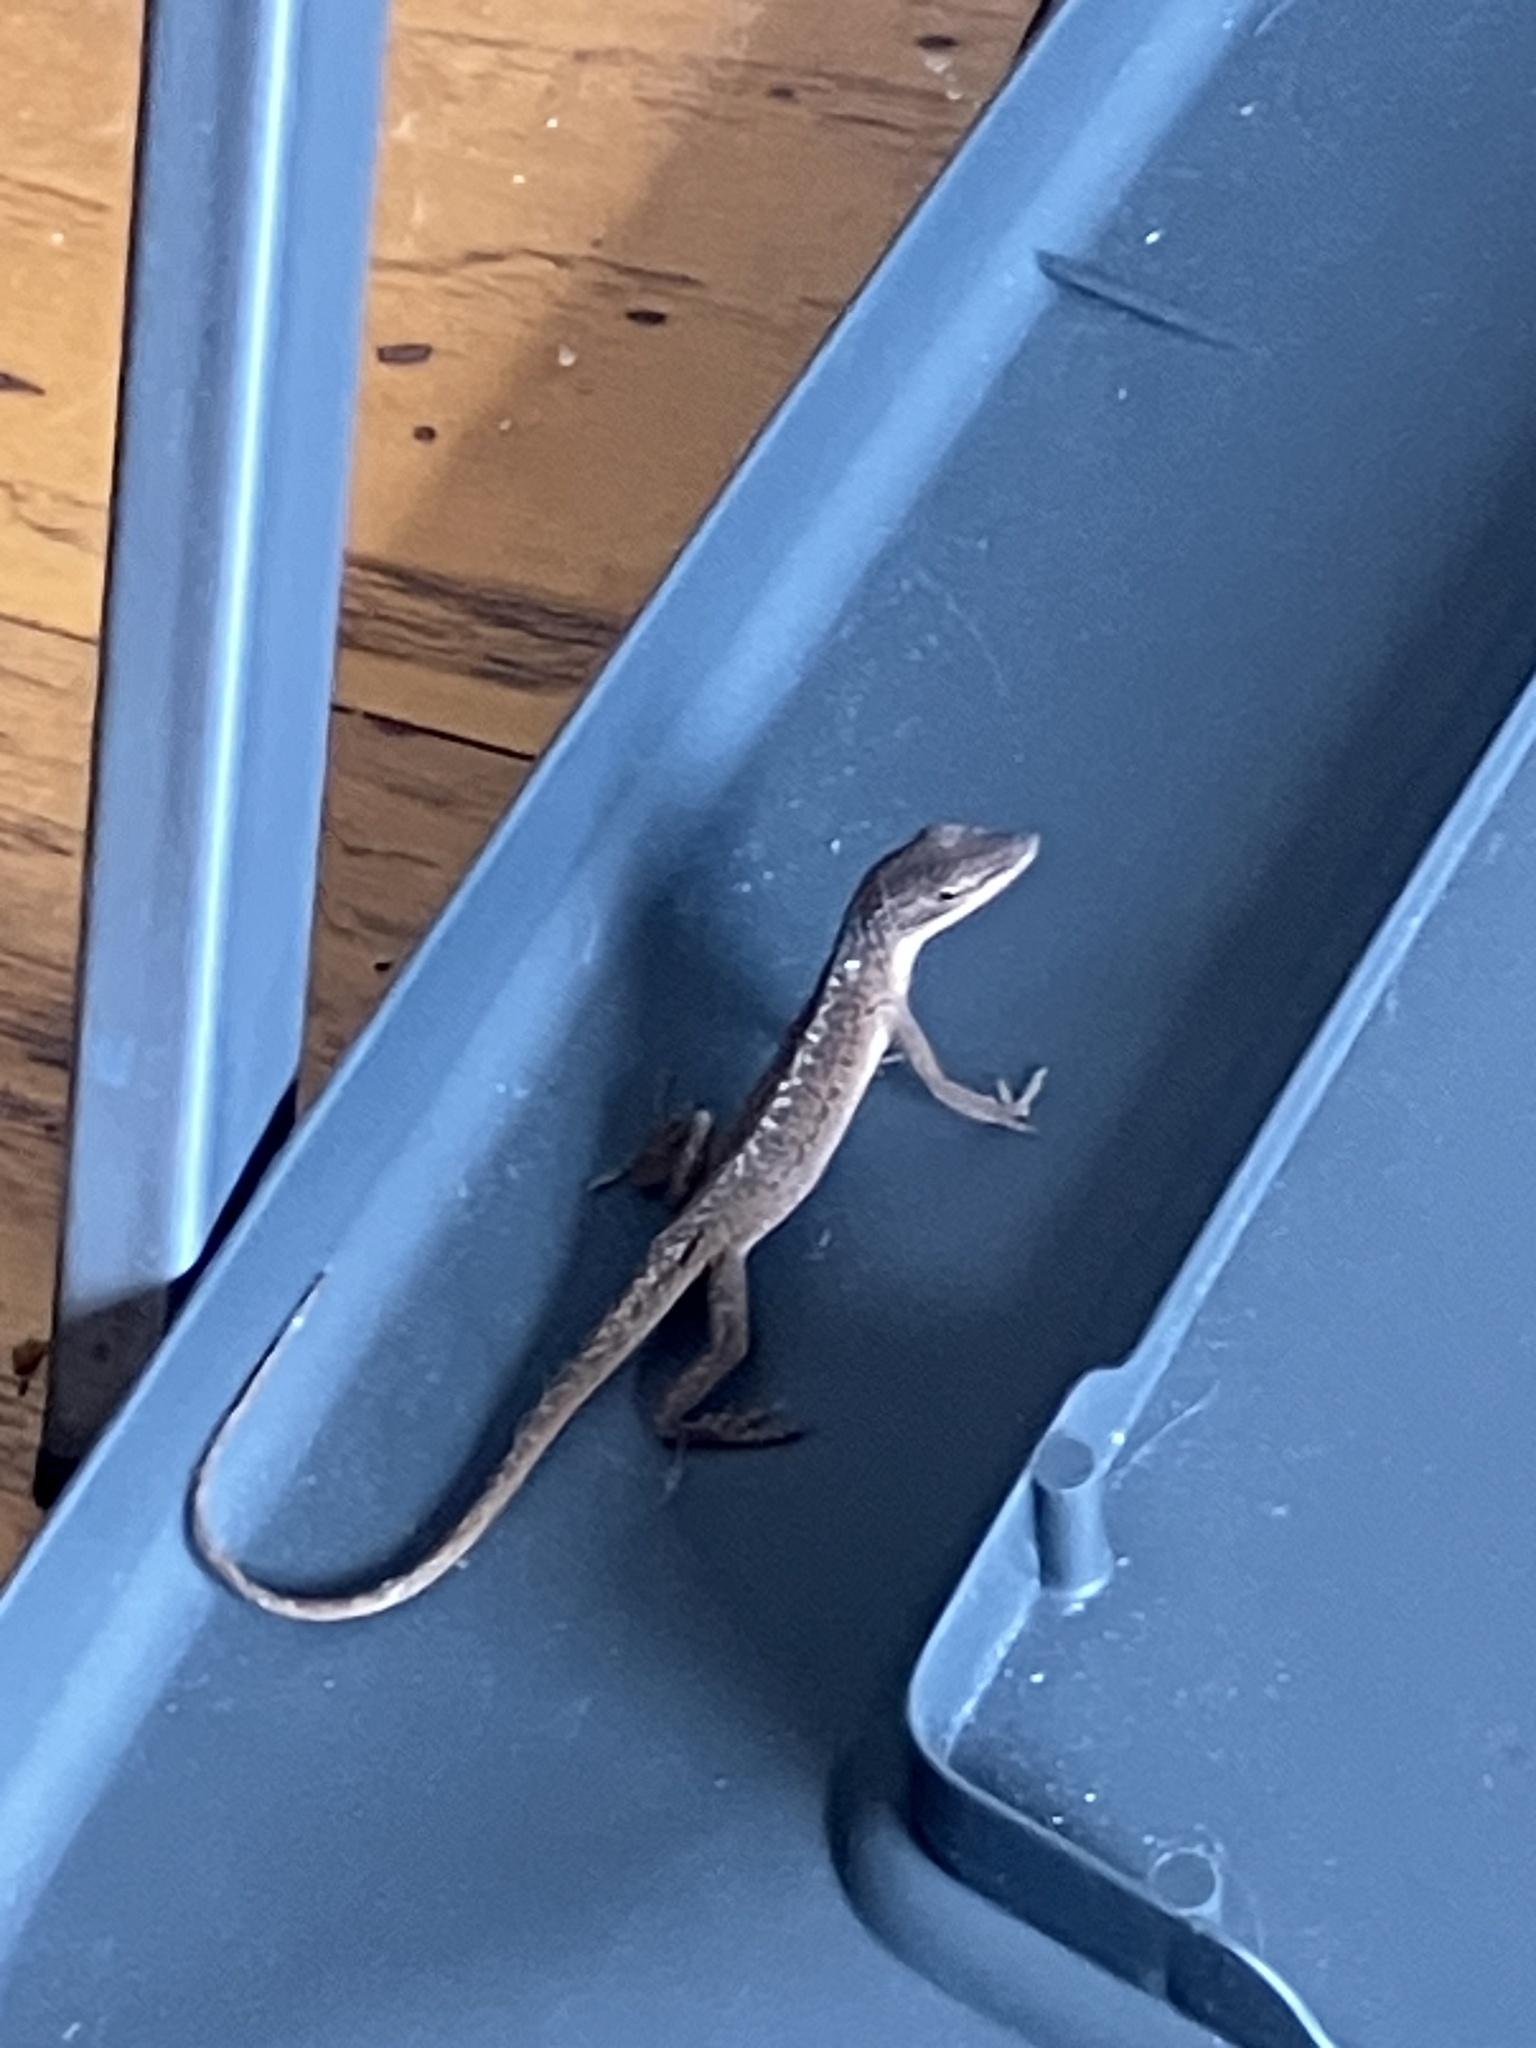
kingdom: Animalia
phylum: Chordata
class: Squamata
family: Dactyloidae
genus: Anolis
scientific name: Anolis carolinensis
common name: Green anole
